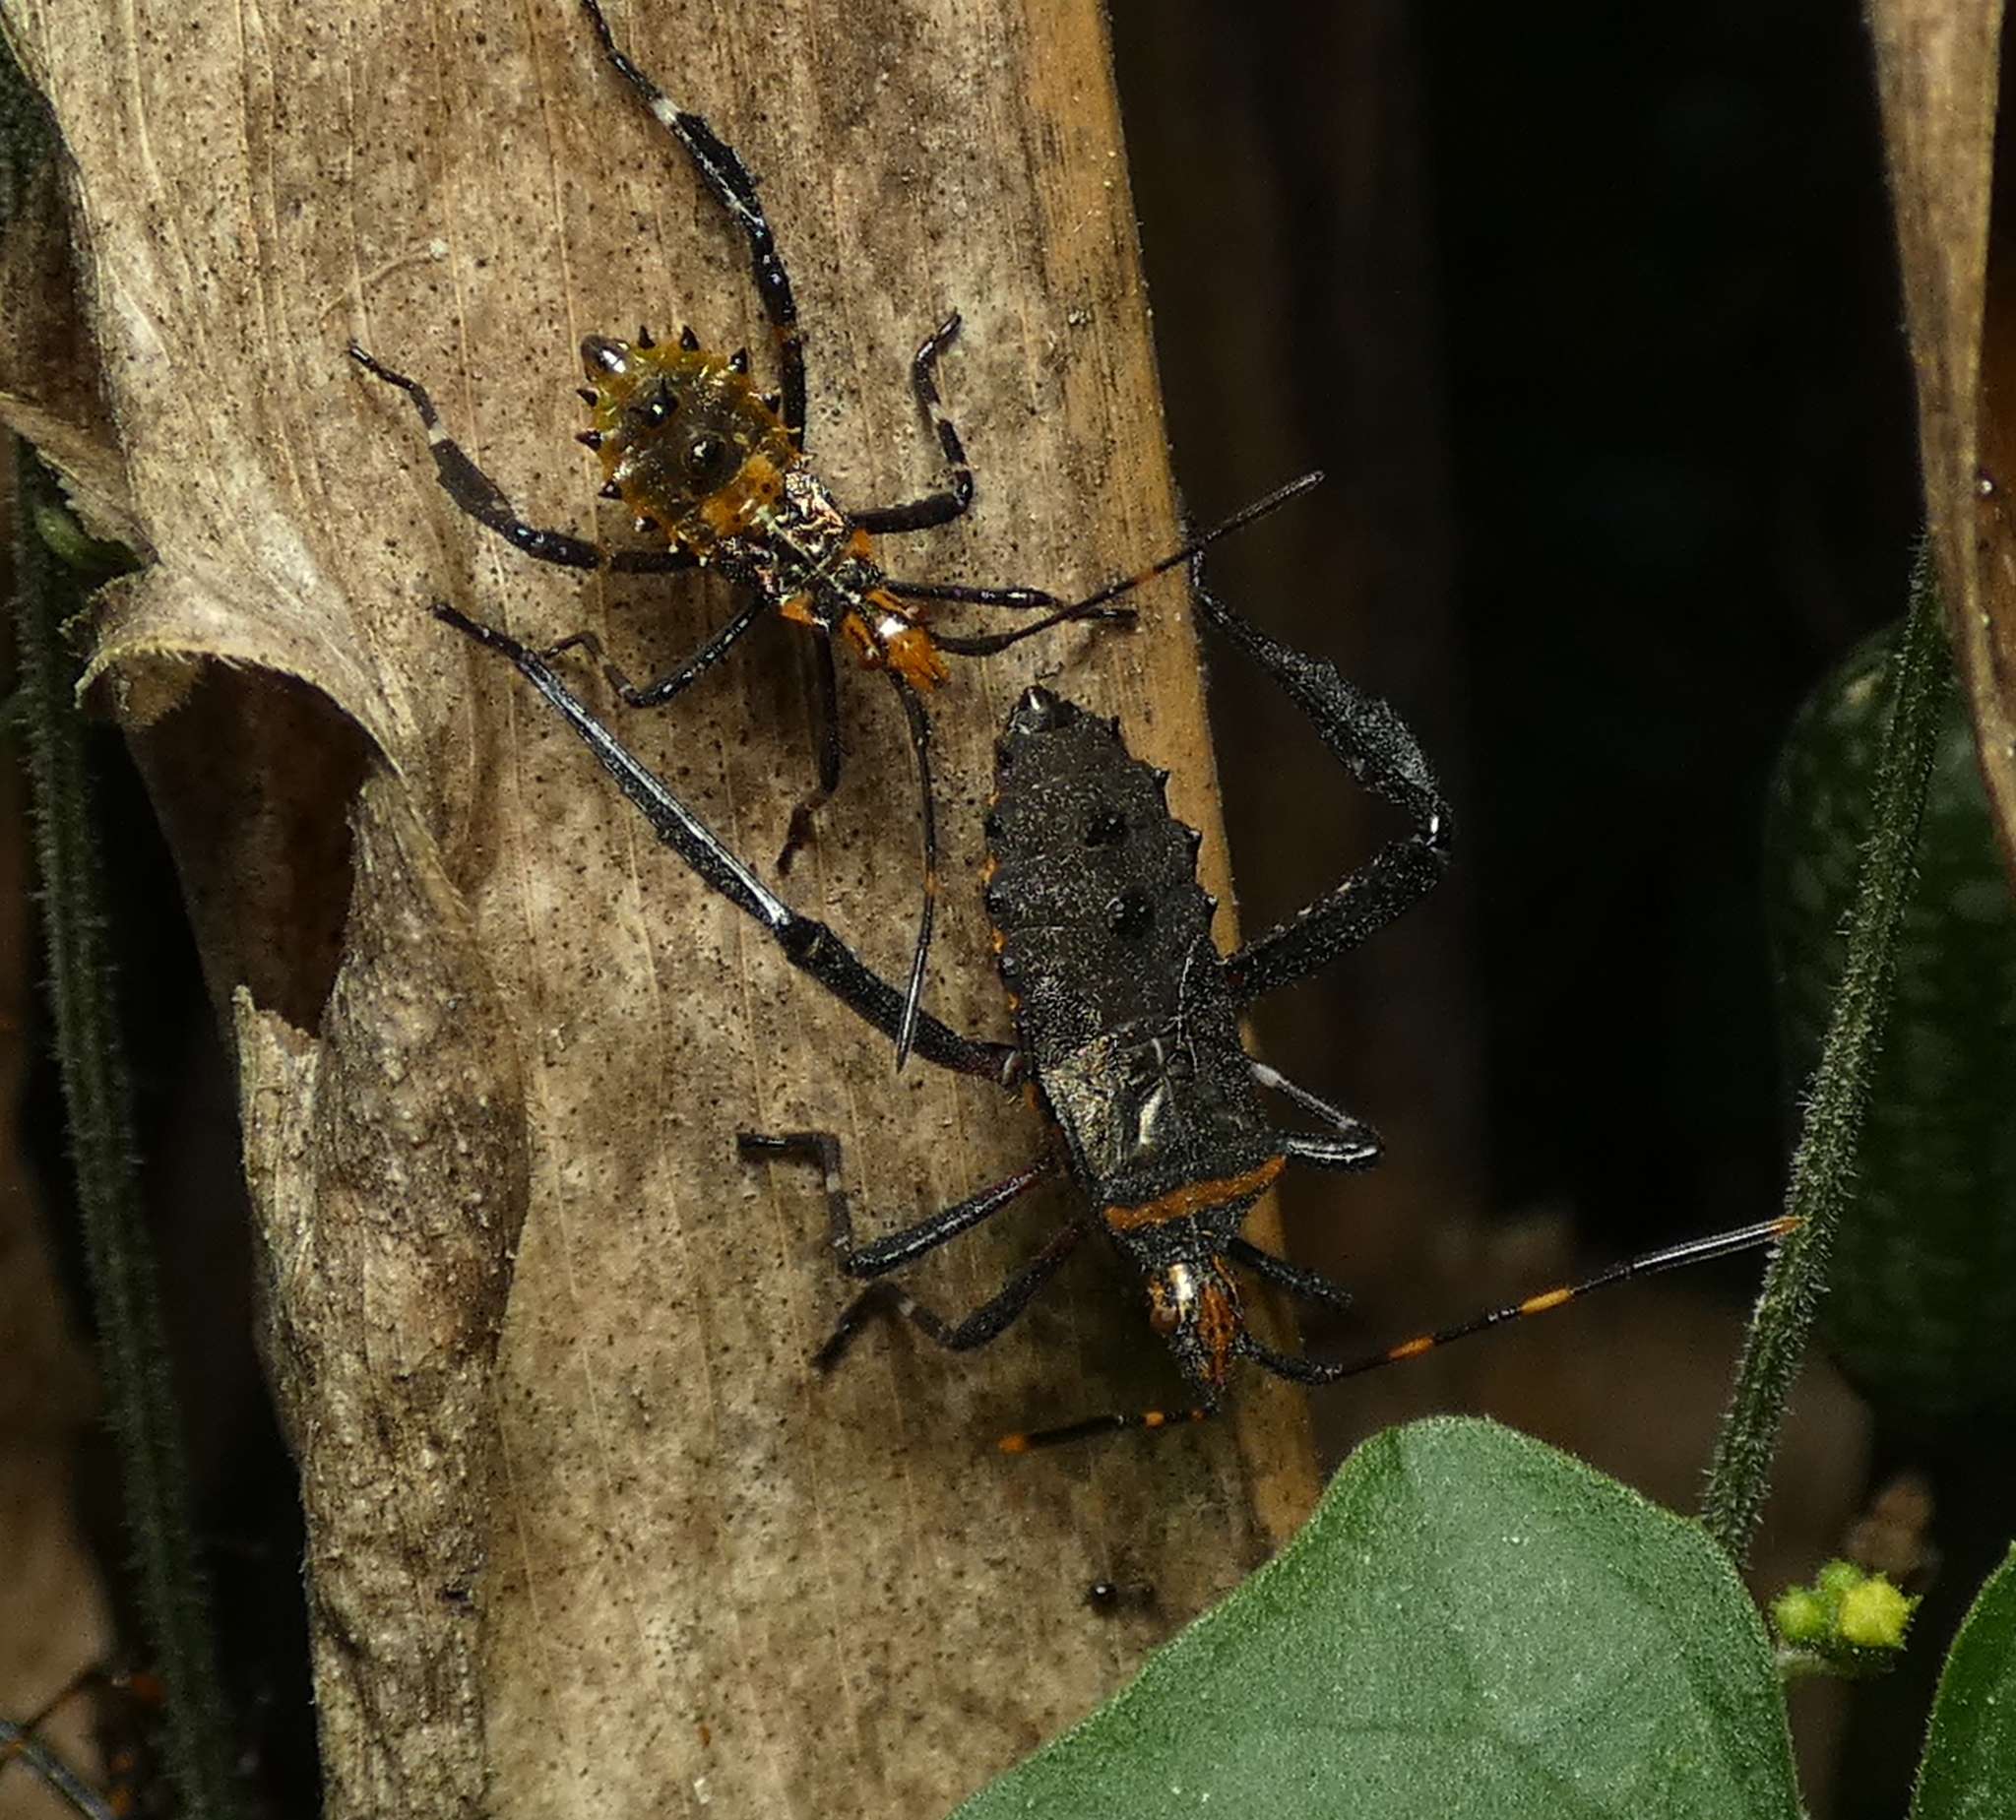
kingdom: Animalia
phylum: Arthropoda
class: Insecta
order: Hemiptera
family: Coreidae
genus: Leptoglossus
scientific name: Leptoglossus gonagra
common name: Citron bug
